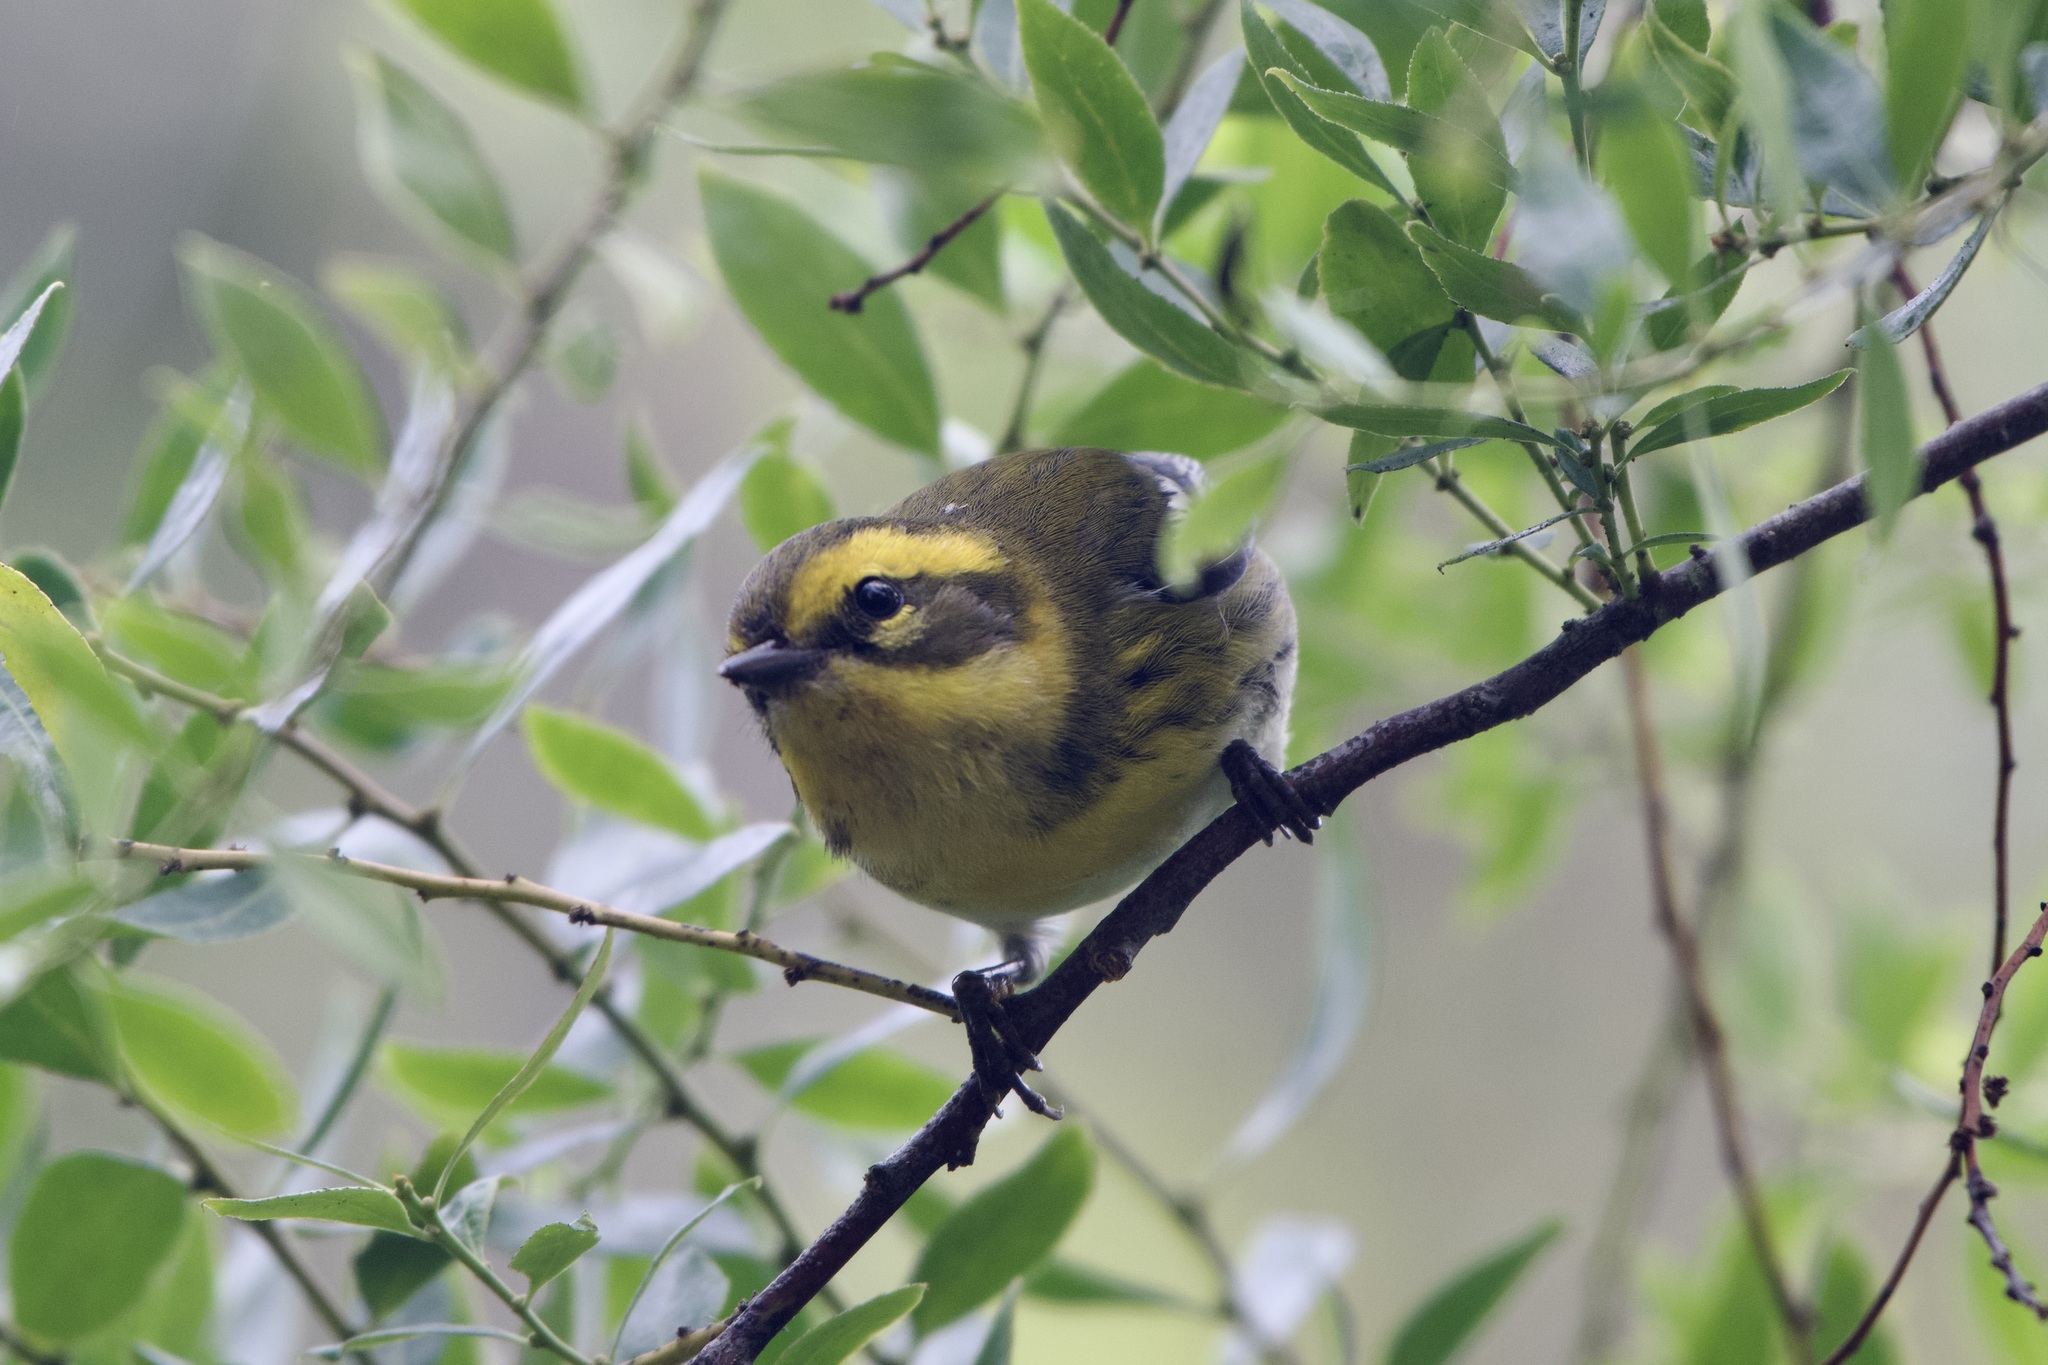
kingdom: Animalia
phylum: Chordata
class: Aves
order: Passeriformes
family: Parulidae
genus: Setophaga
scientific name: Setophaga townsendi
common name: Townsend's warbler
